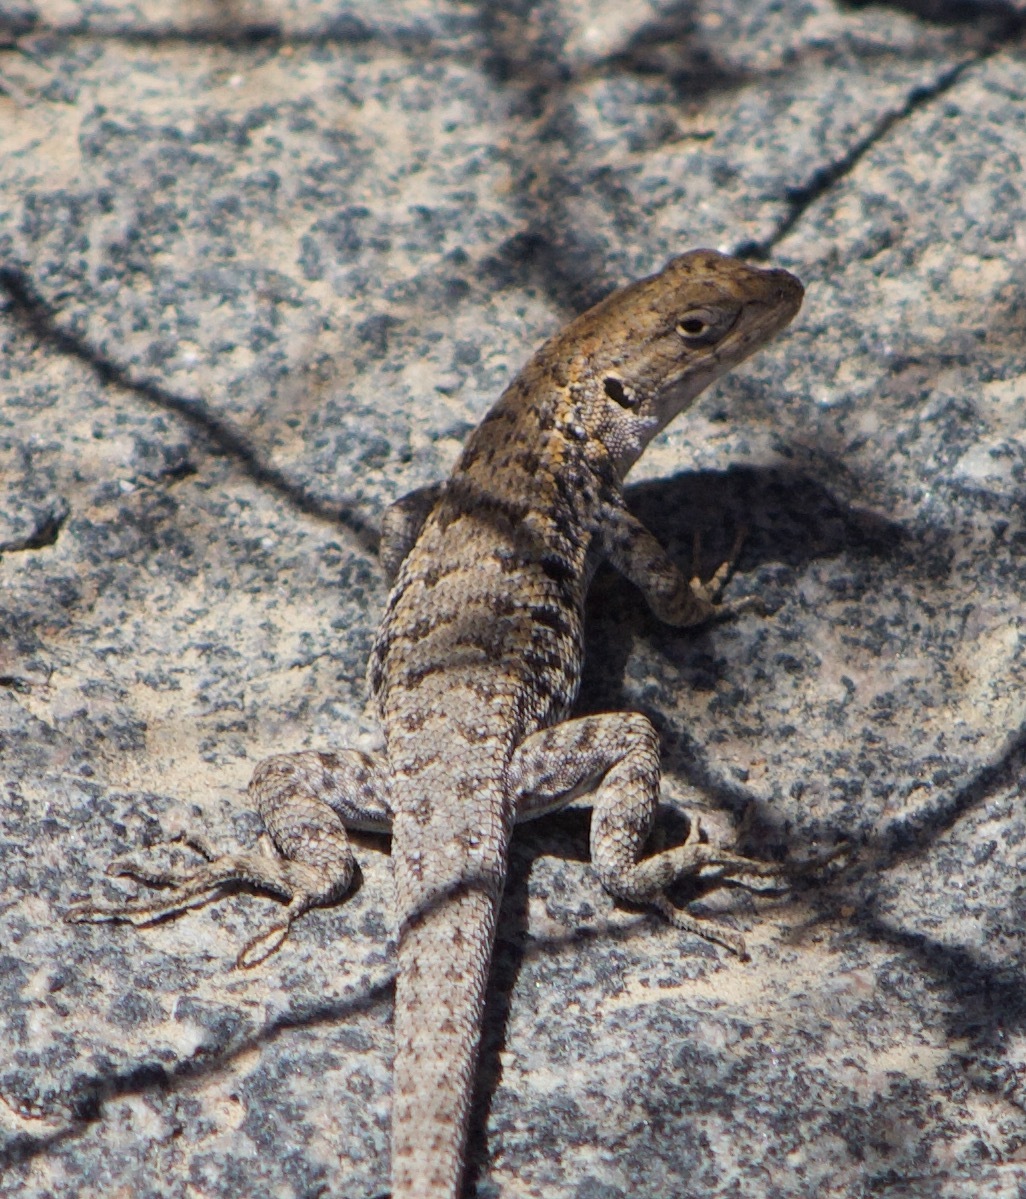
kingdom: Animalia
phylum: Chordata
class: Squamata
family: Liolaemidae
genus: Liolaemus
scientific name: Liolaemus platei
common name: Braided tree iguana
